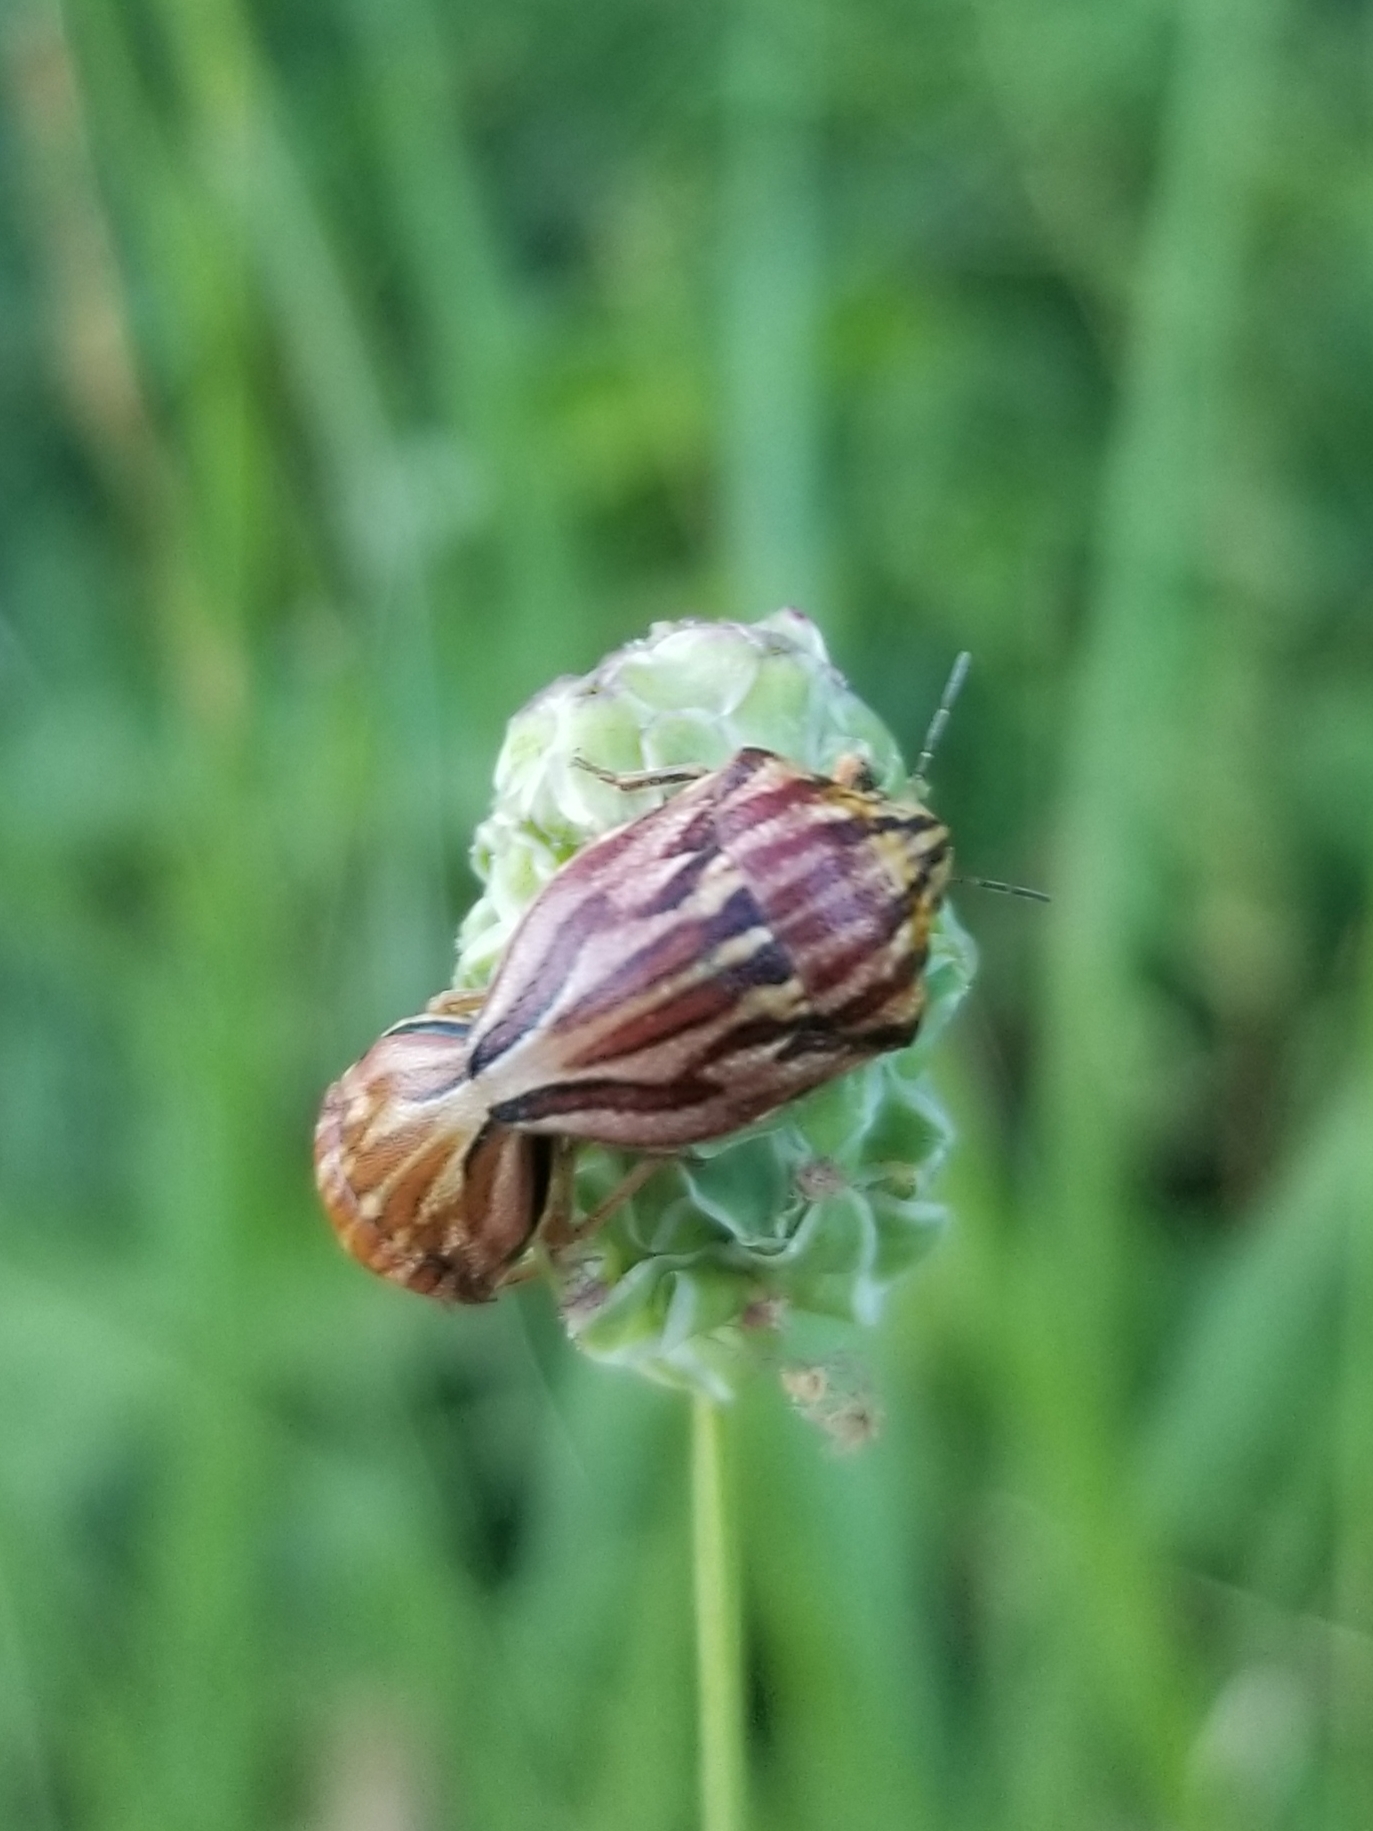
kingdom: Animalia
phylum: Arthropoda
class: Insecta
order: Hemiptera
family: Scutelleridae
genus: Odontotarsus
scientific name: Odontotarsus purpureolineatus
